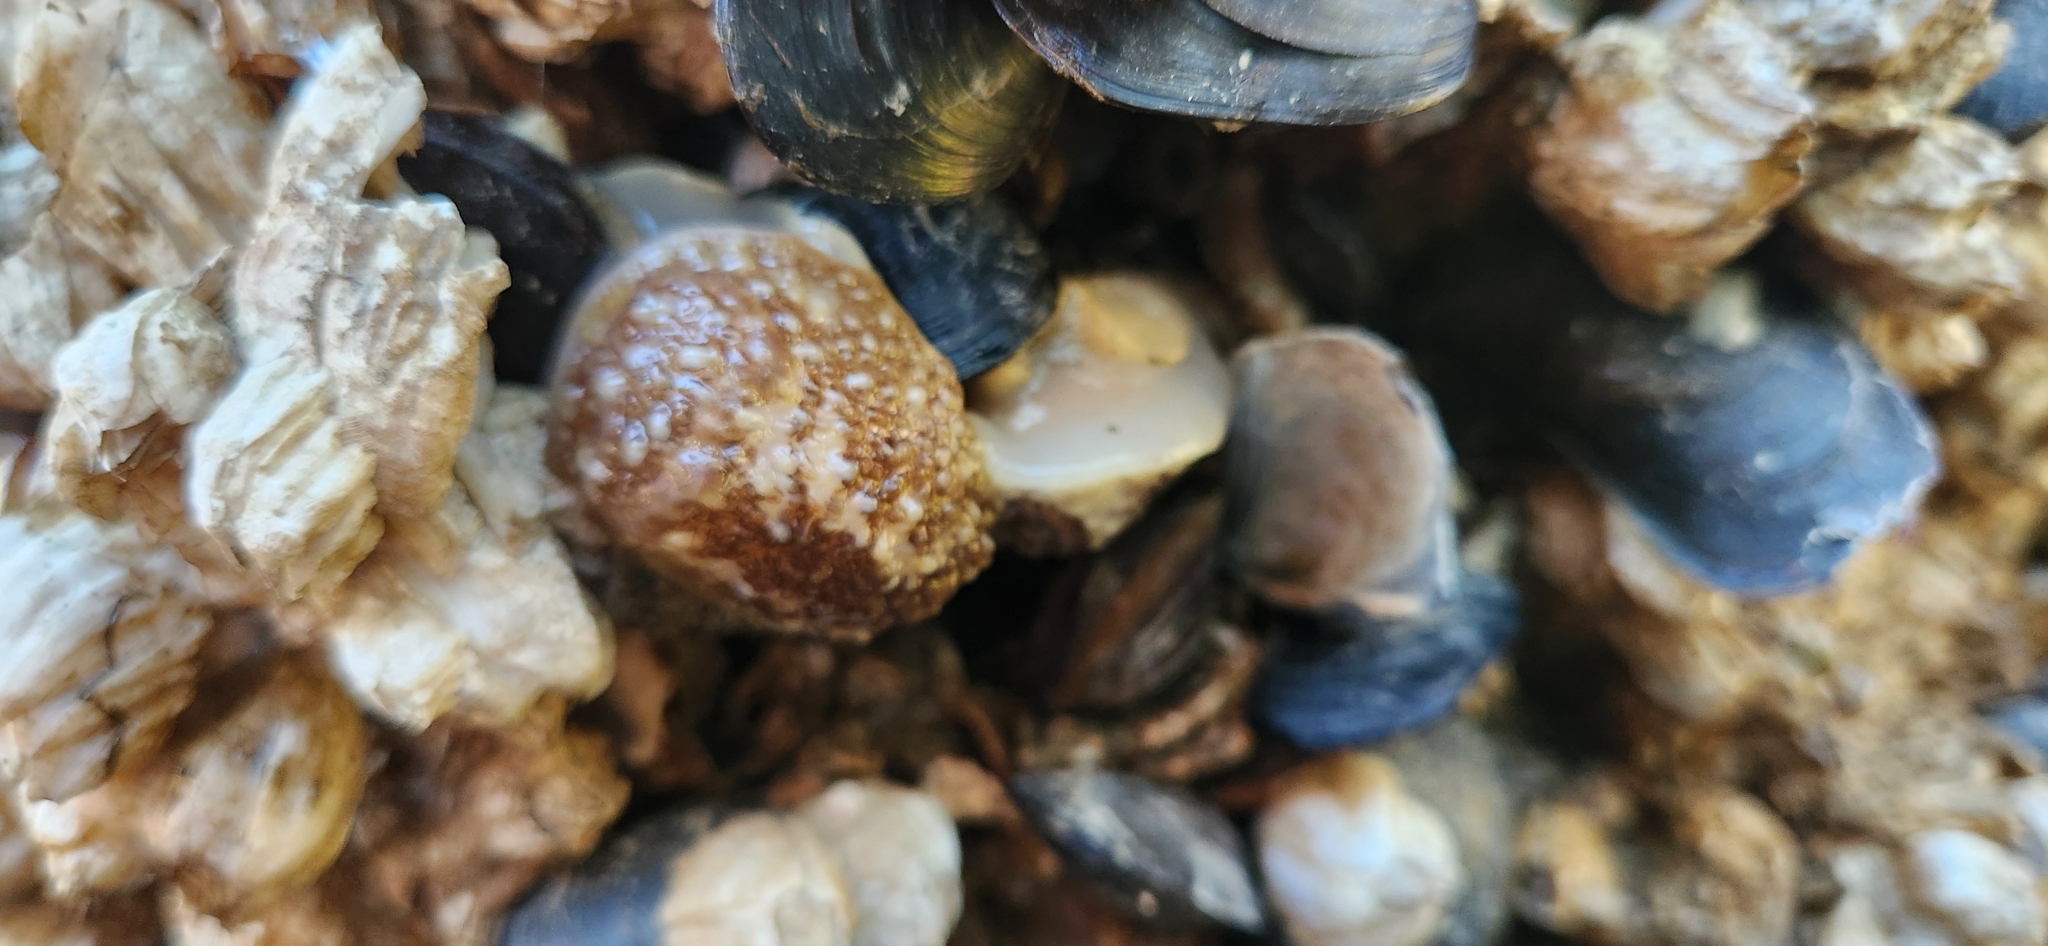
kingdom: Animalia
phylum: Mollusca
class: Gastropoda
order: Nudibranchia
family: Onchidorididae
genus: Onchidoris
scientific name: Onchidoris bilamellata
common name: Barnacle-eating onchidoris
